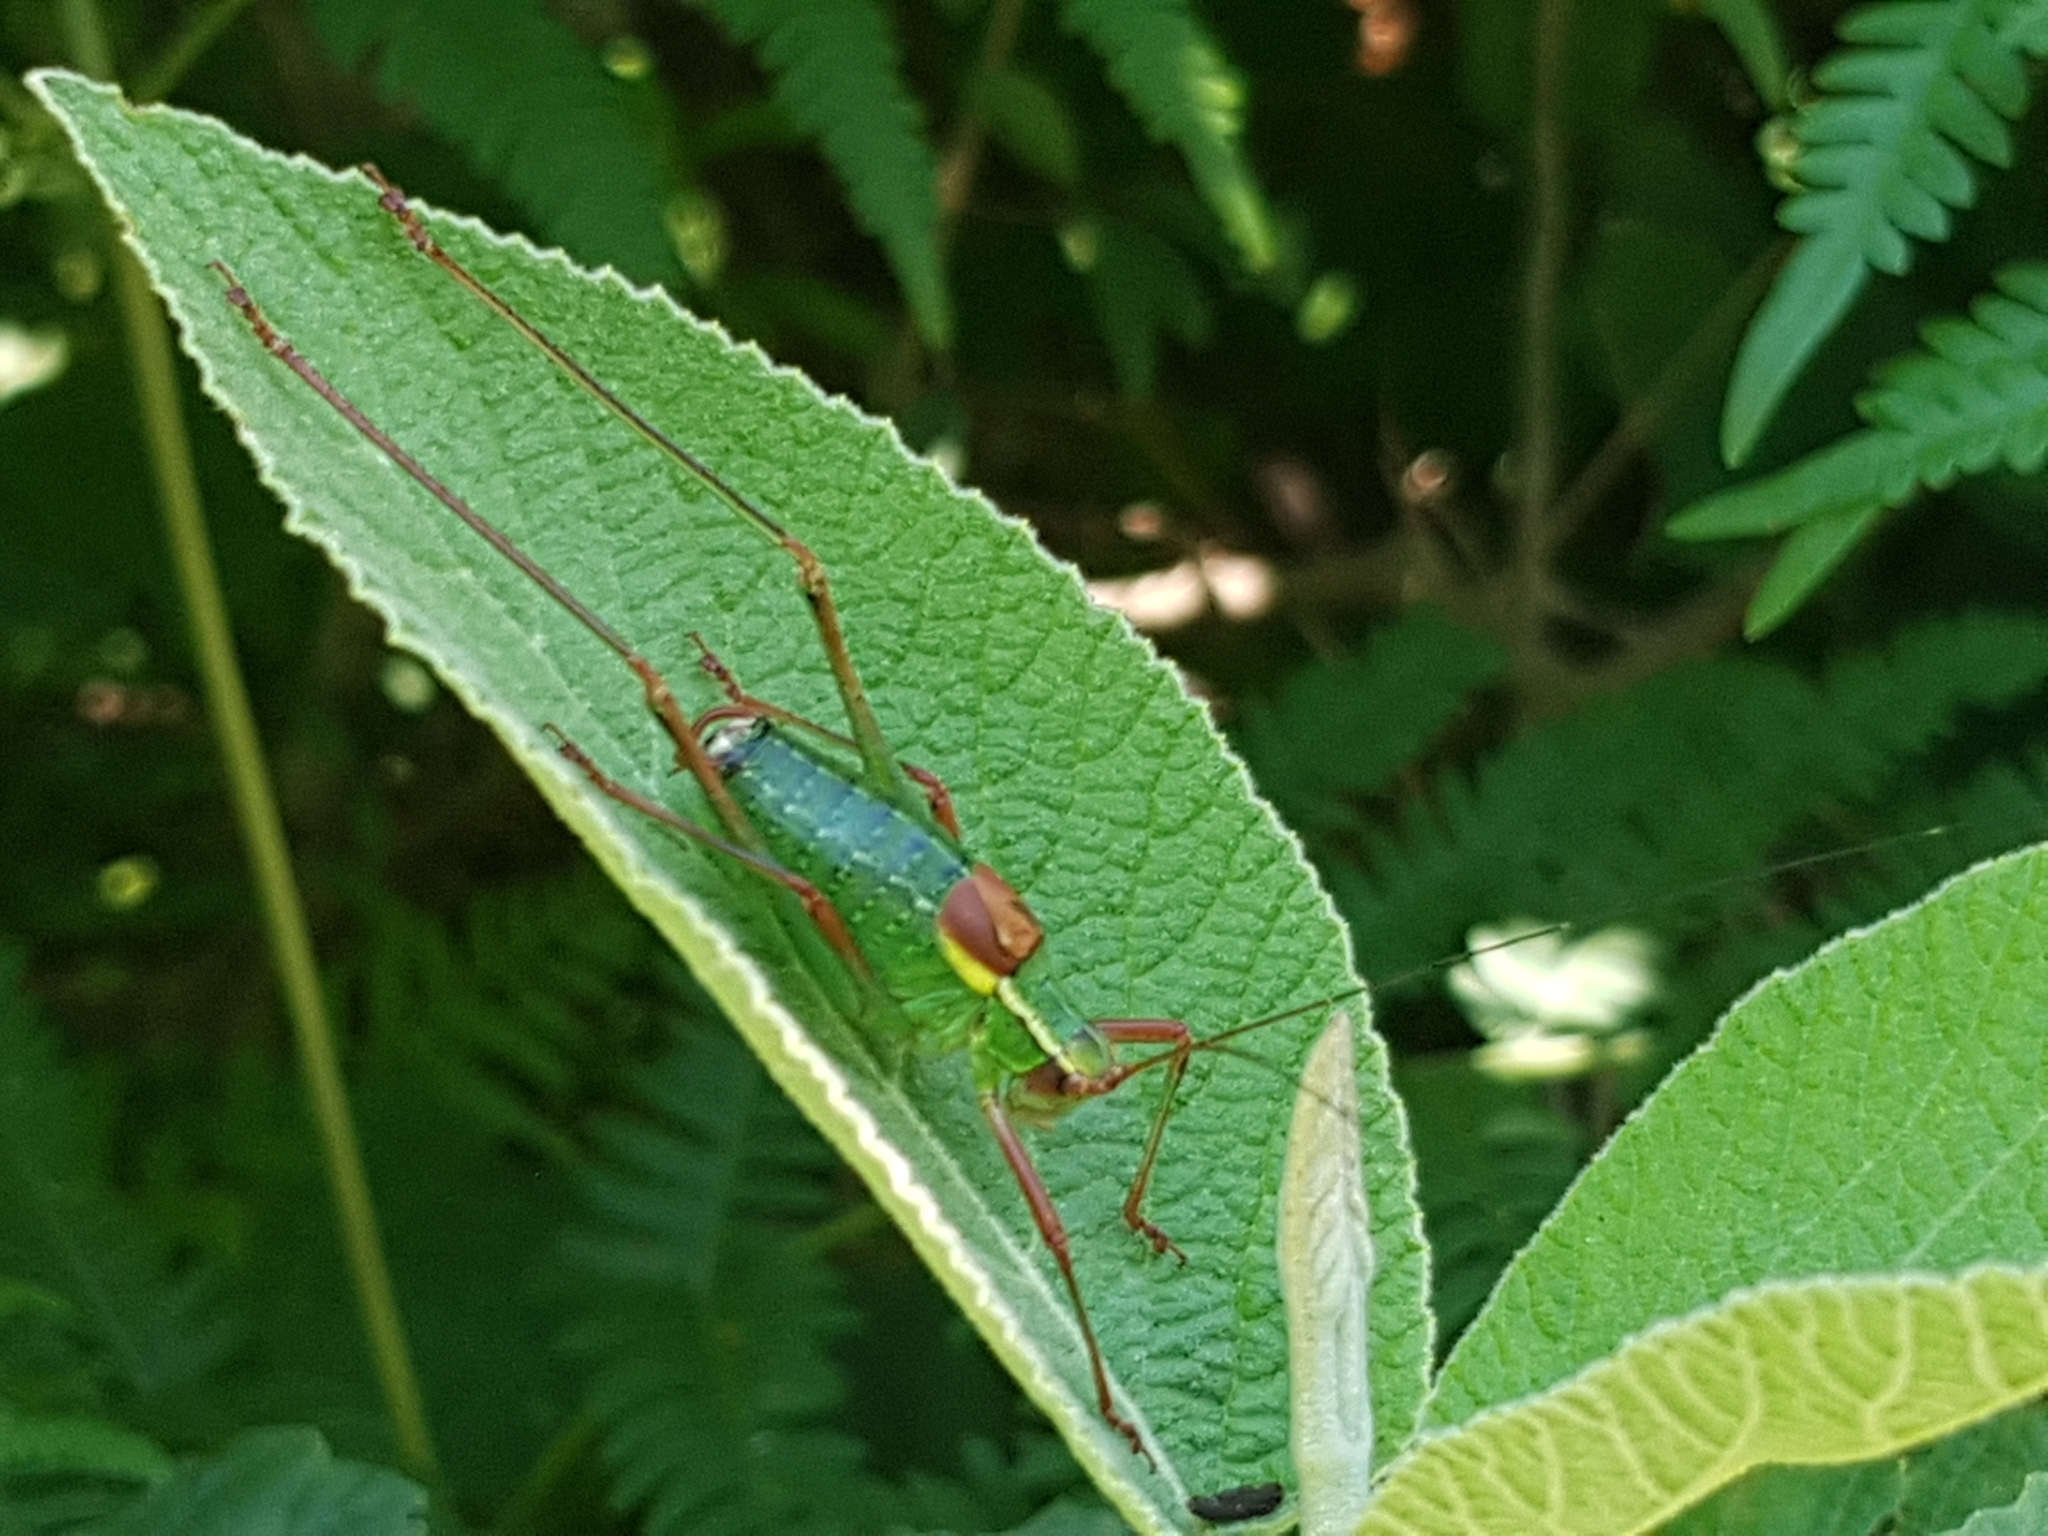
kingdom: Animalia
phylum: Arthropoda
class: Insecta
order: Orthoptera
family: Tettigoniidae
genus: Barbitistes
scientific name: Barbitistes serricauda
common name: Saw-tailed bush-cricket
